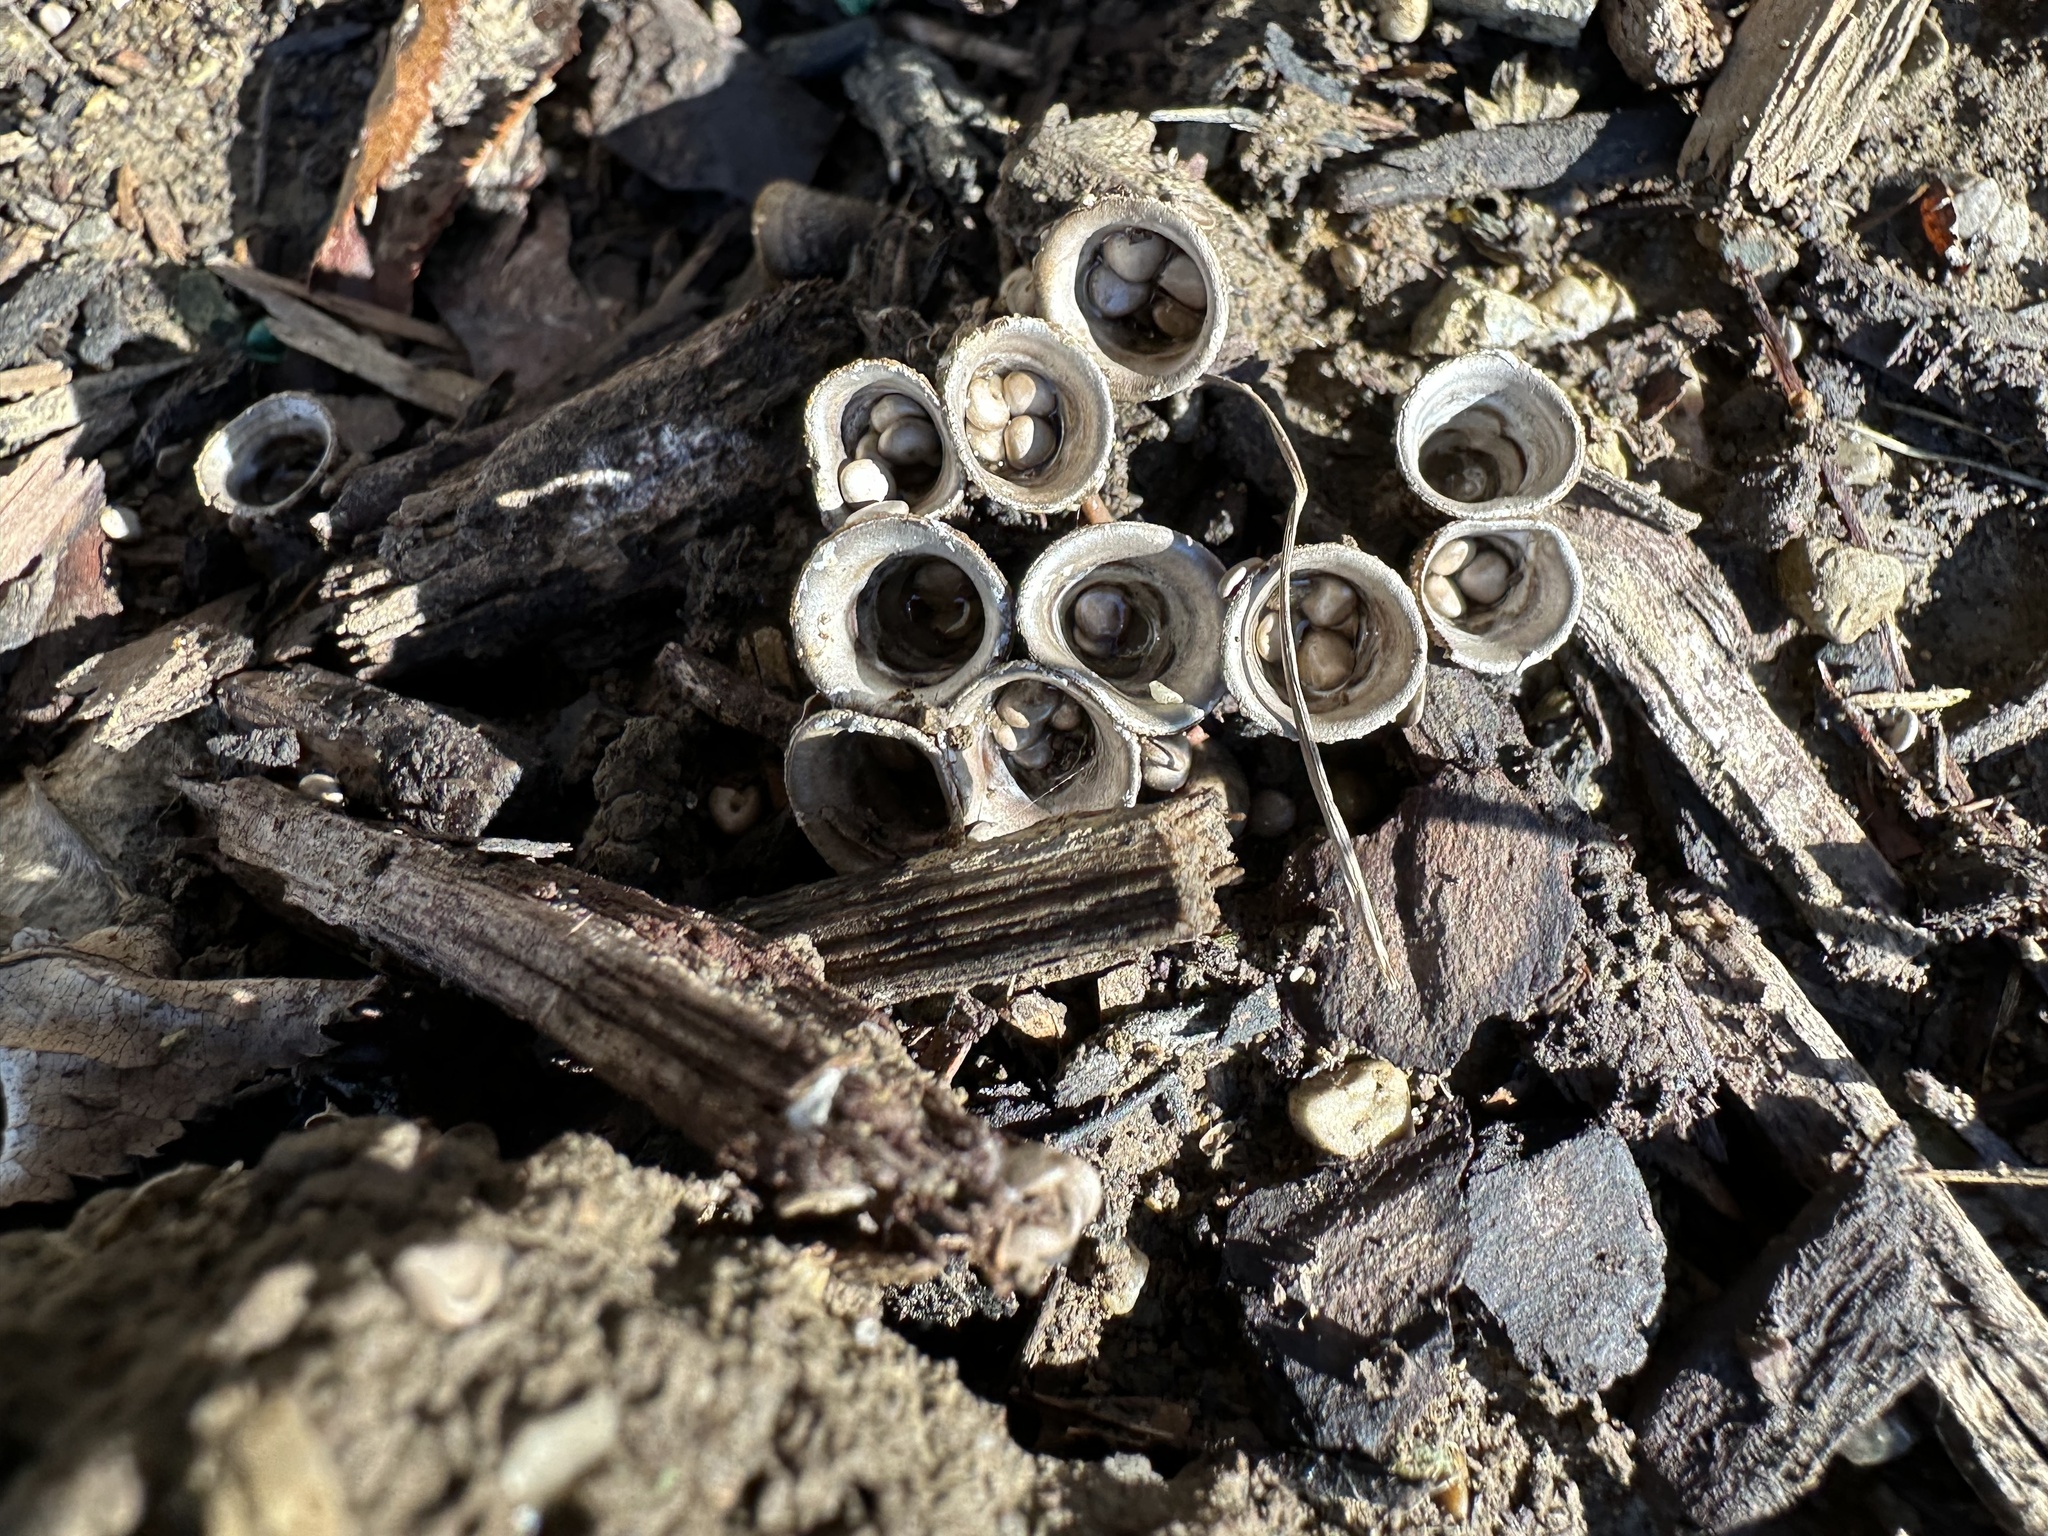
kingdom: Fungi
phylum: Basidiomycota
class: Agaricomycetes
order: Agaricales
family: Agaricaceae
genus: Cyathus
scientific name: Cyathus olla
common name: Field bird's nest
